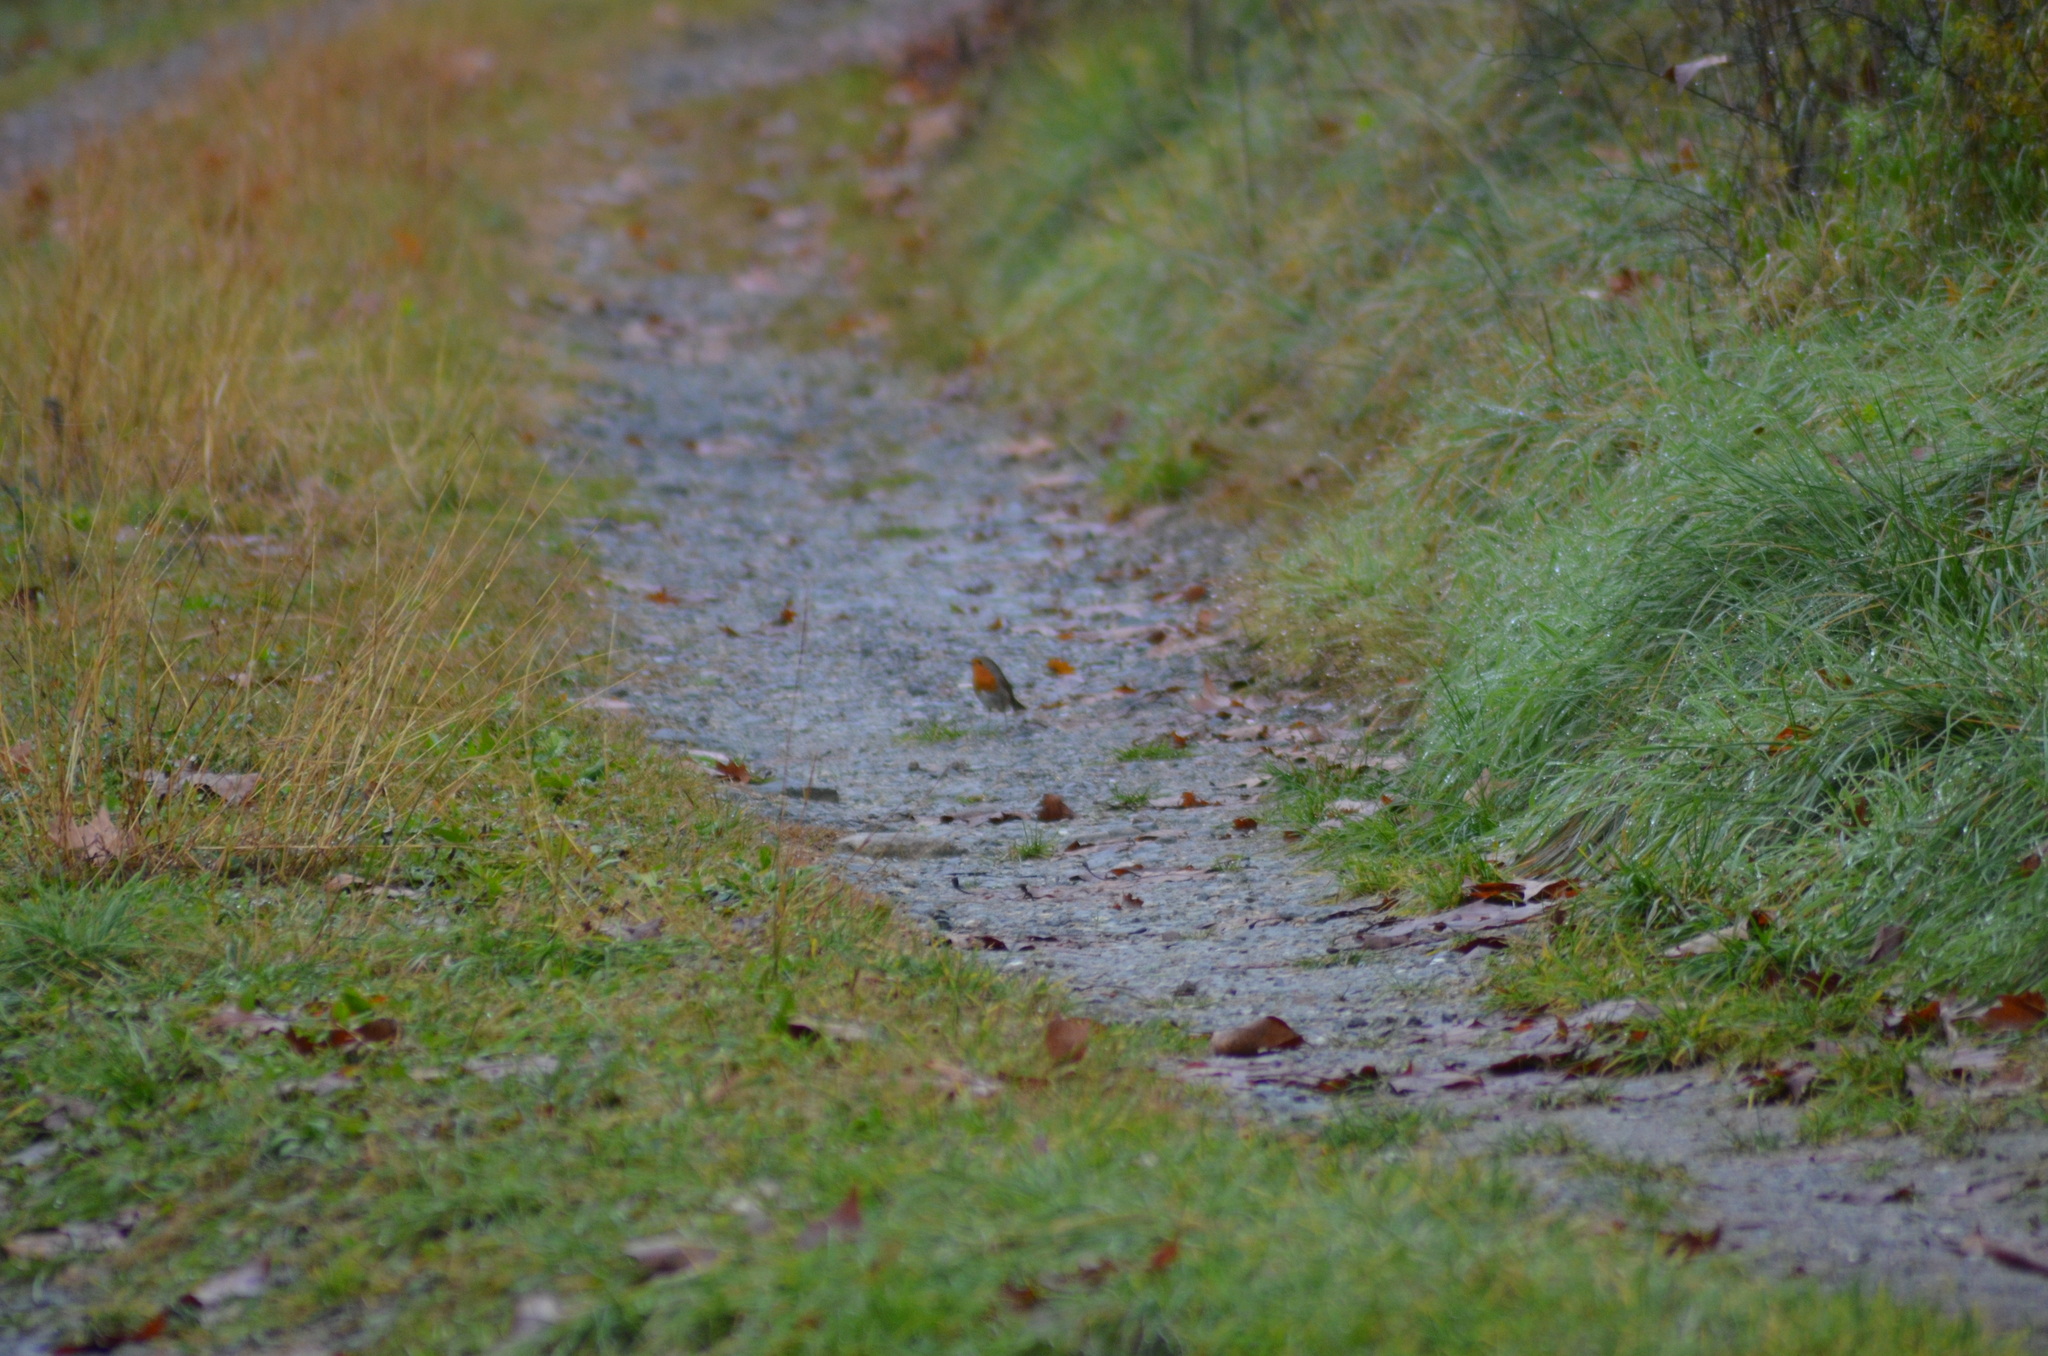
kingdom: Animalia
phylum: Chordata
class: Aves
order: Passeriformes
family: Muscicapidae
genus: Erithacus
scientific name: Erithacus rubecula
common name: European robin
